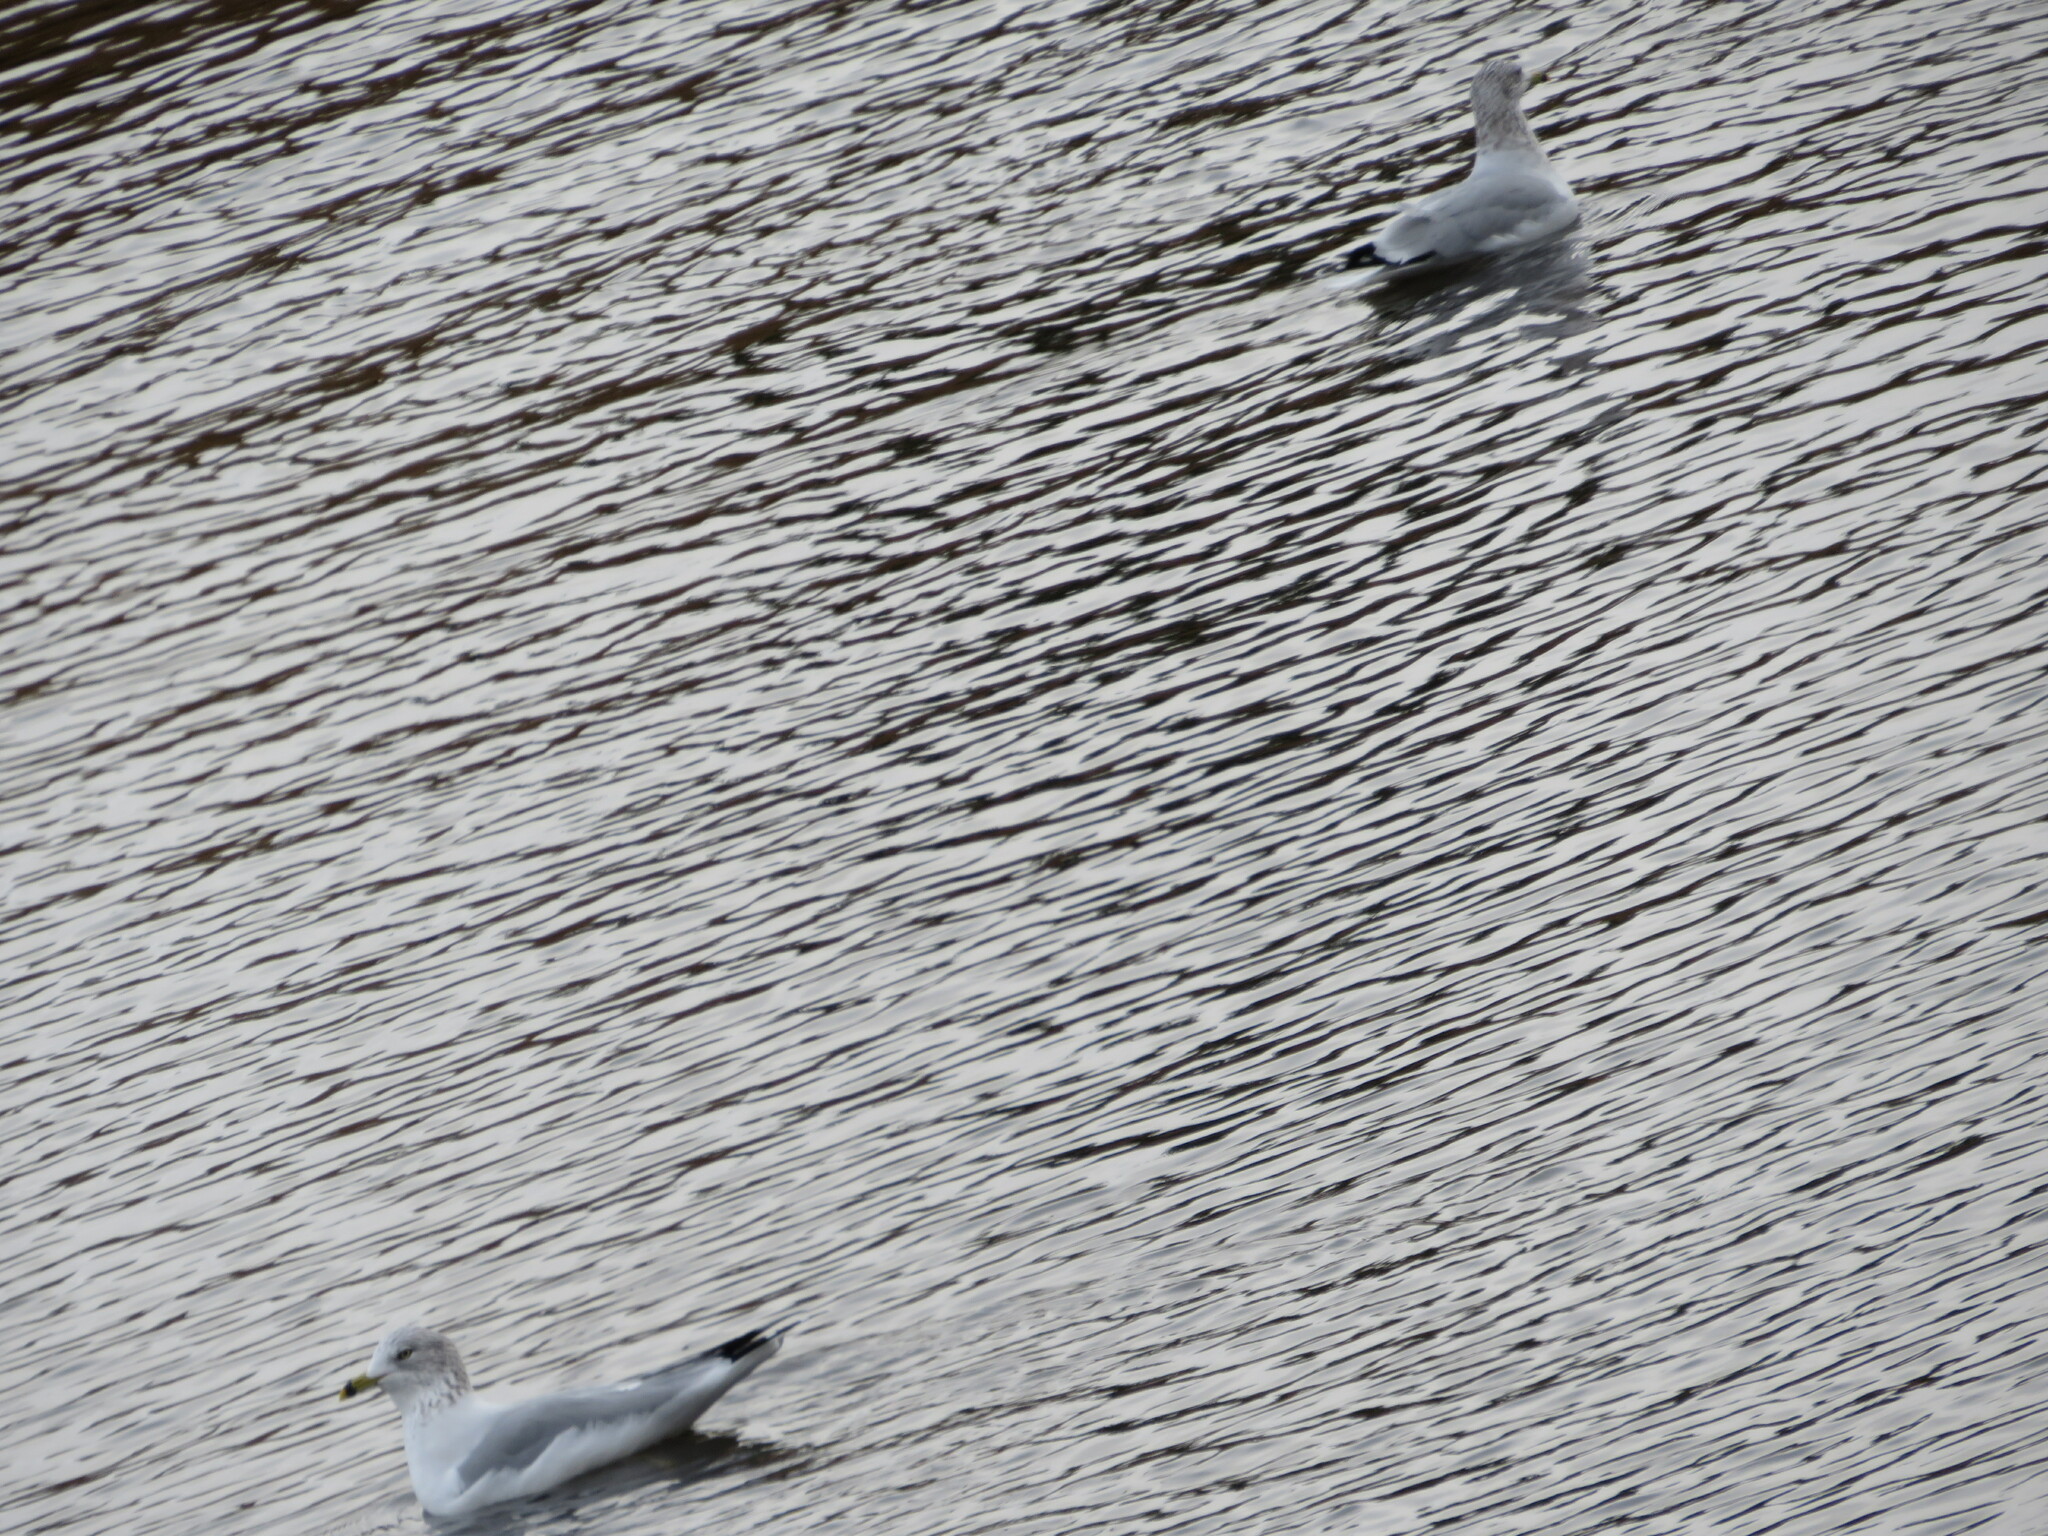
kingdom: Animalia
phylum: Chordata
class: Aves
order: Charadriiformes
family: Laridae
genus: Larus
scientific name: Larus delawarensis
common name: Ring-billed gull
